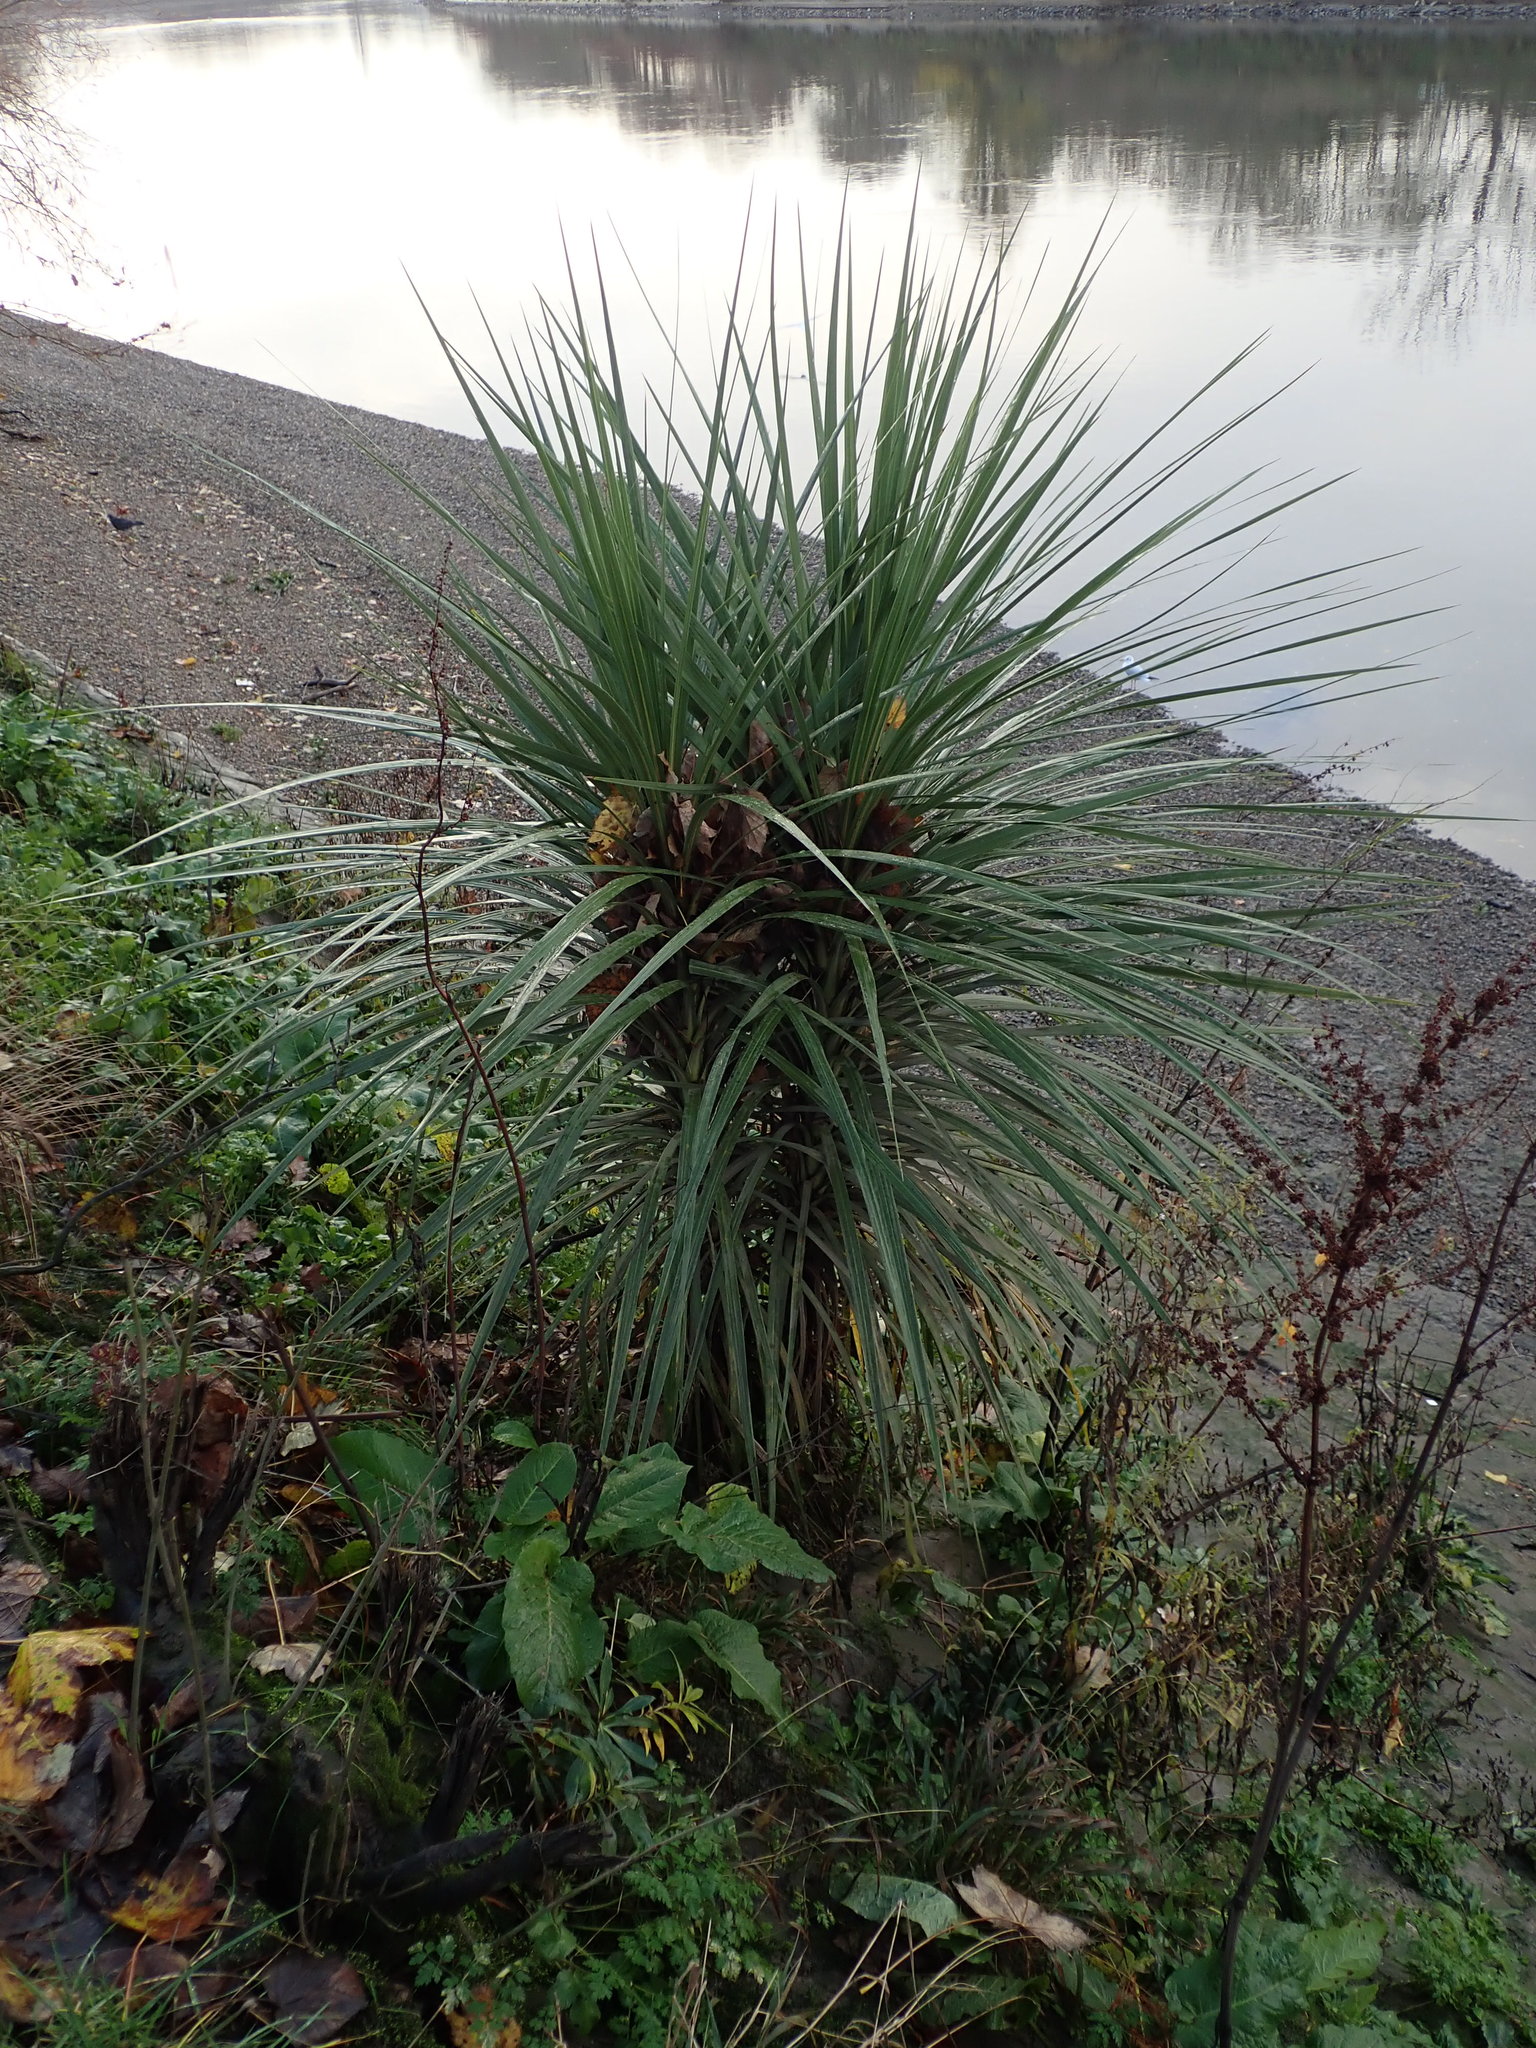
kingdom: Plantae
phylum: Tracheophyta
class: Liliopsida
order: Asparagales
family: Asparagaceae
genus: Cordyline
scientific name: Cordyline australis
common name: Cabbage-palm
